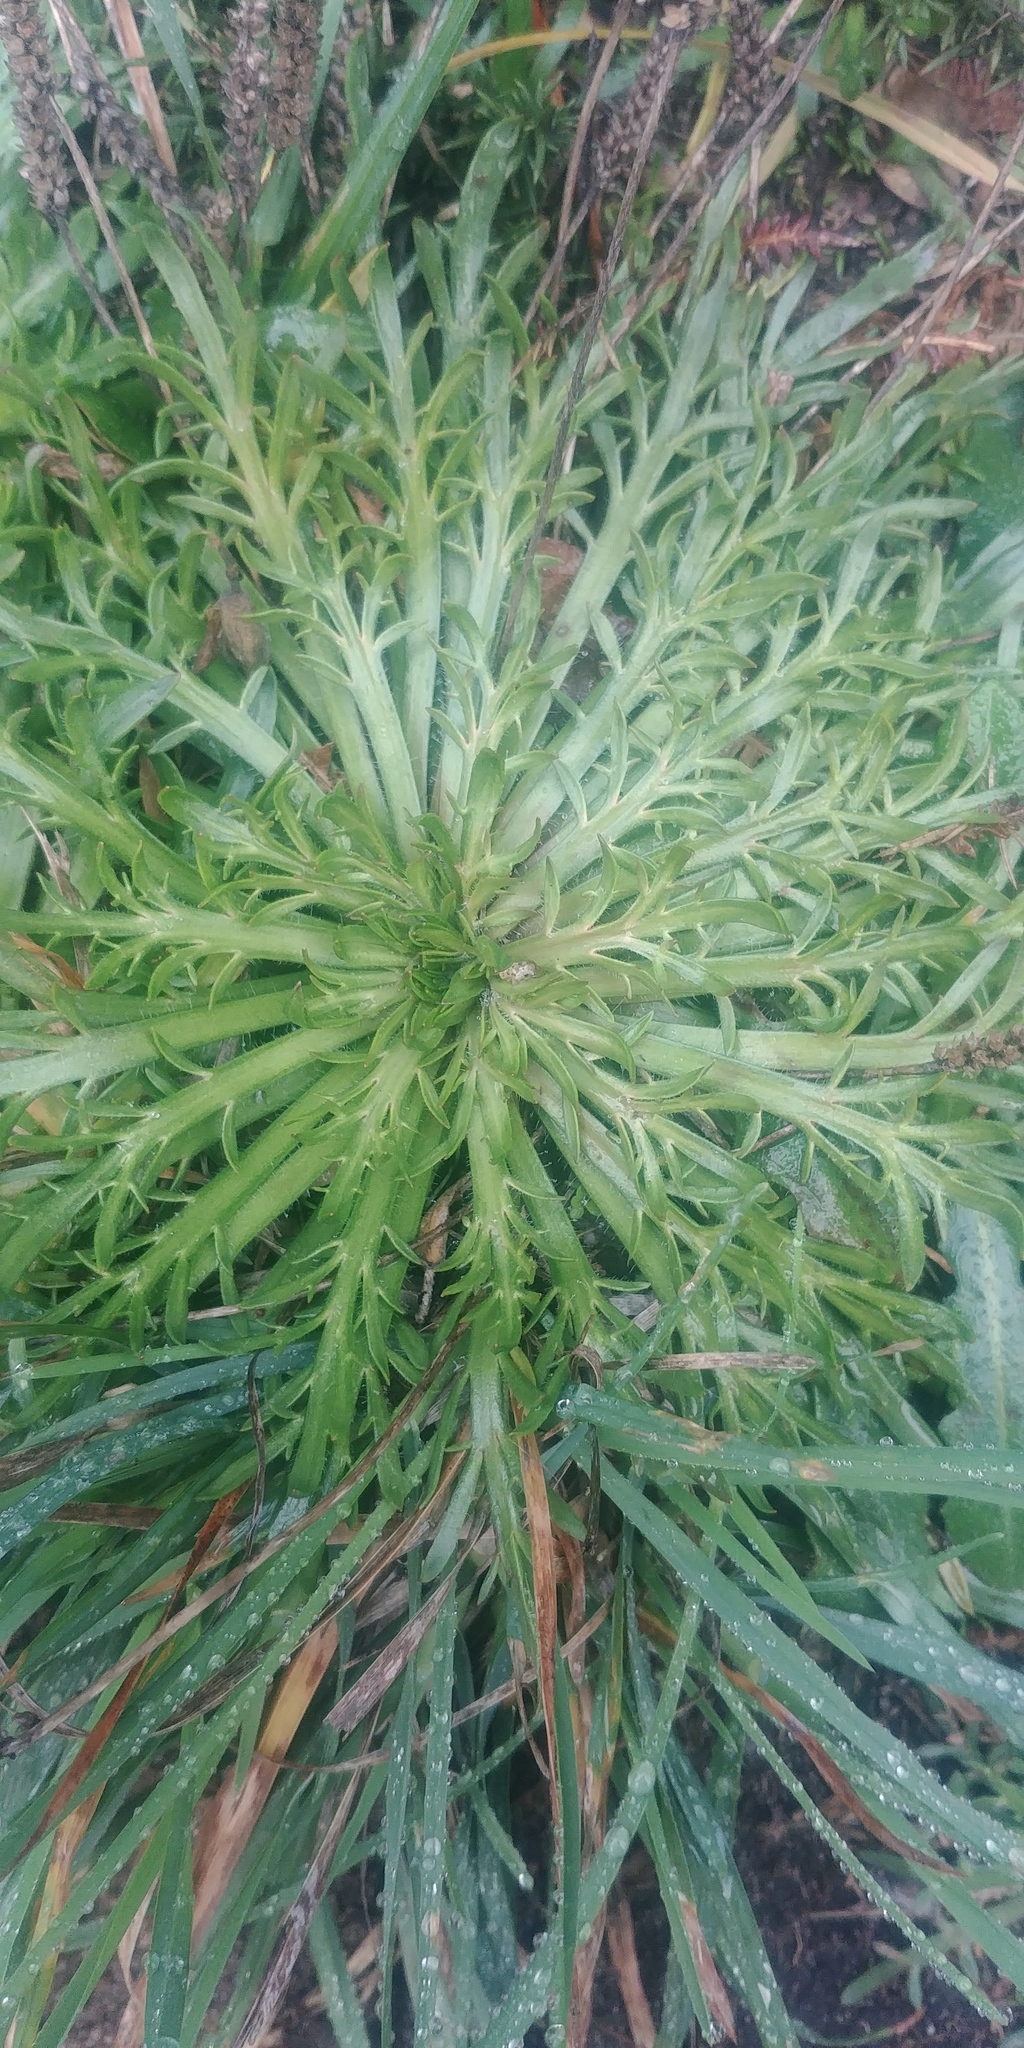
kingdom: Plantae
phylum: Tracheophyta
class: Magnoliopsida
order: Lamiales
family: Plantaginaceae
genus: Plantago
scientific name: Plantago coronopus
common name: Buck's-horn plantain
